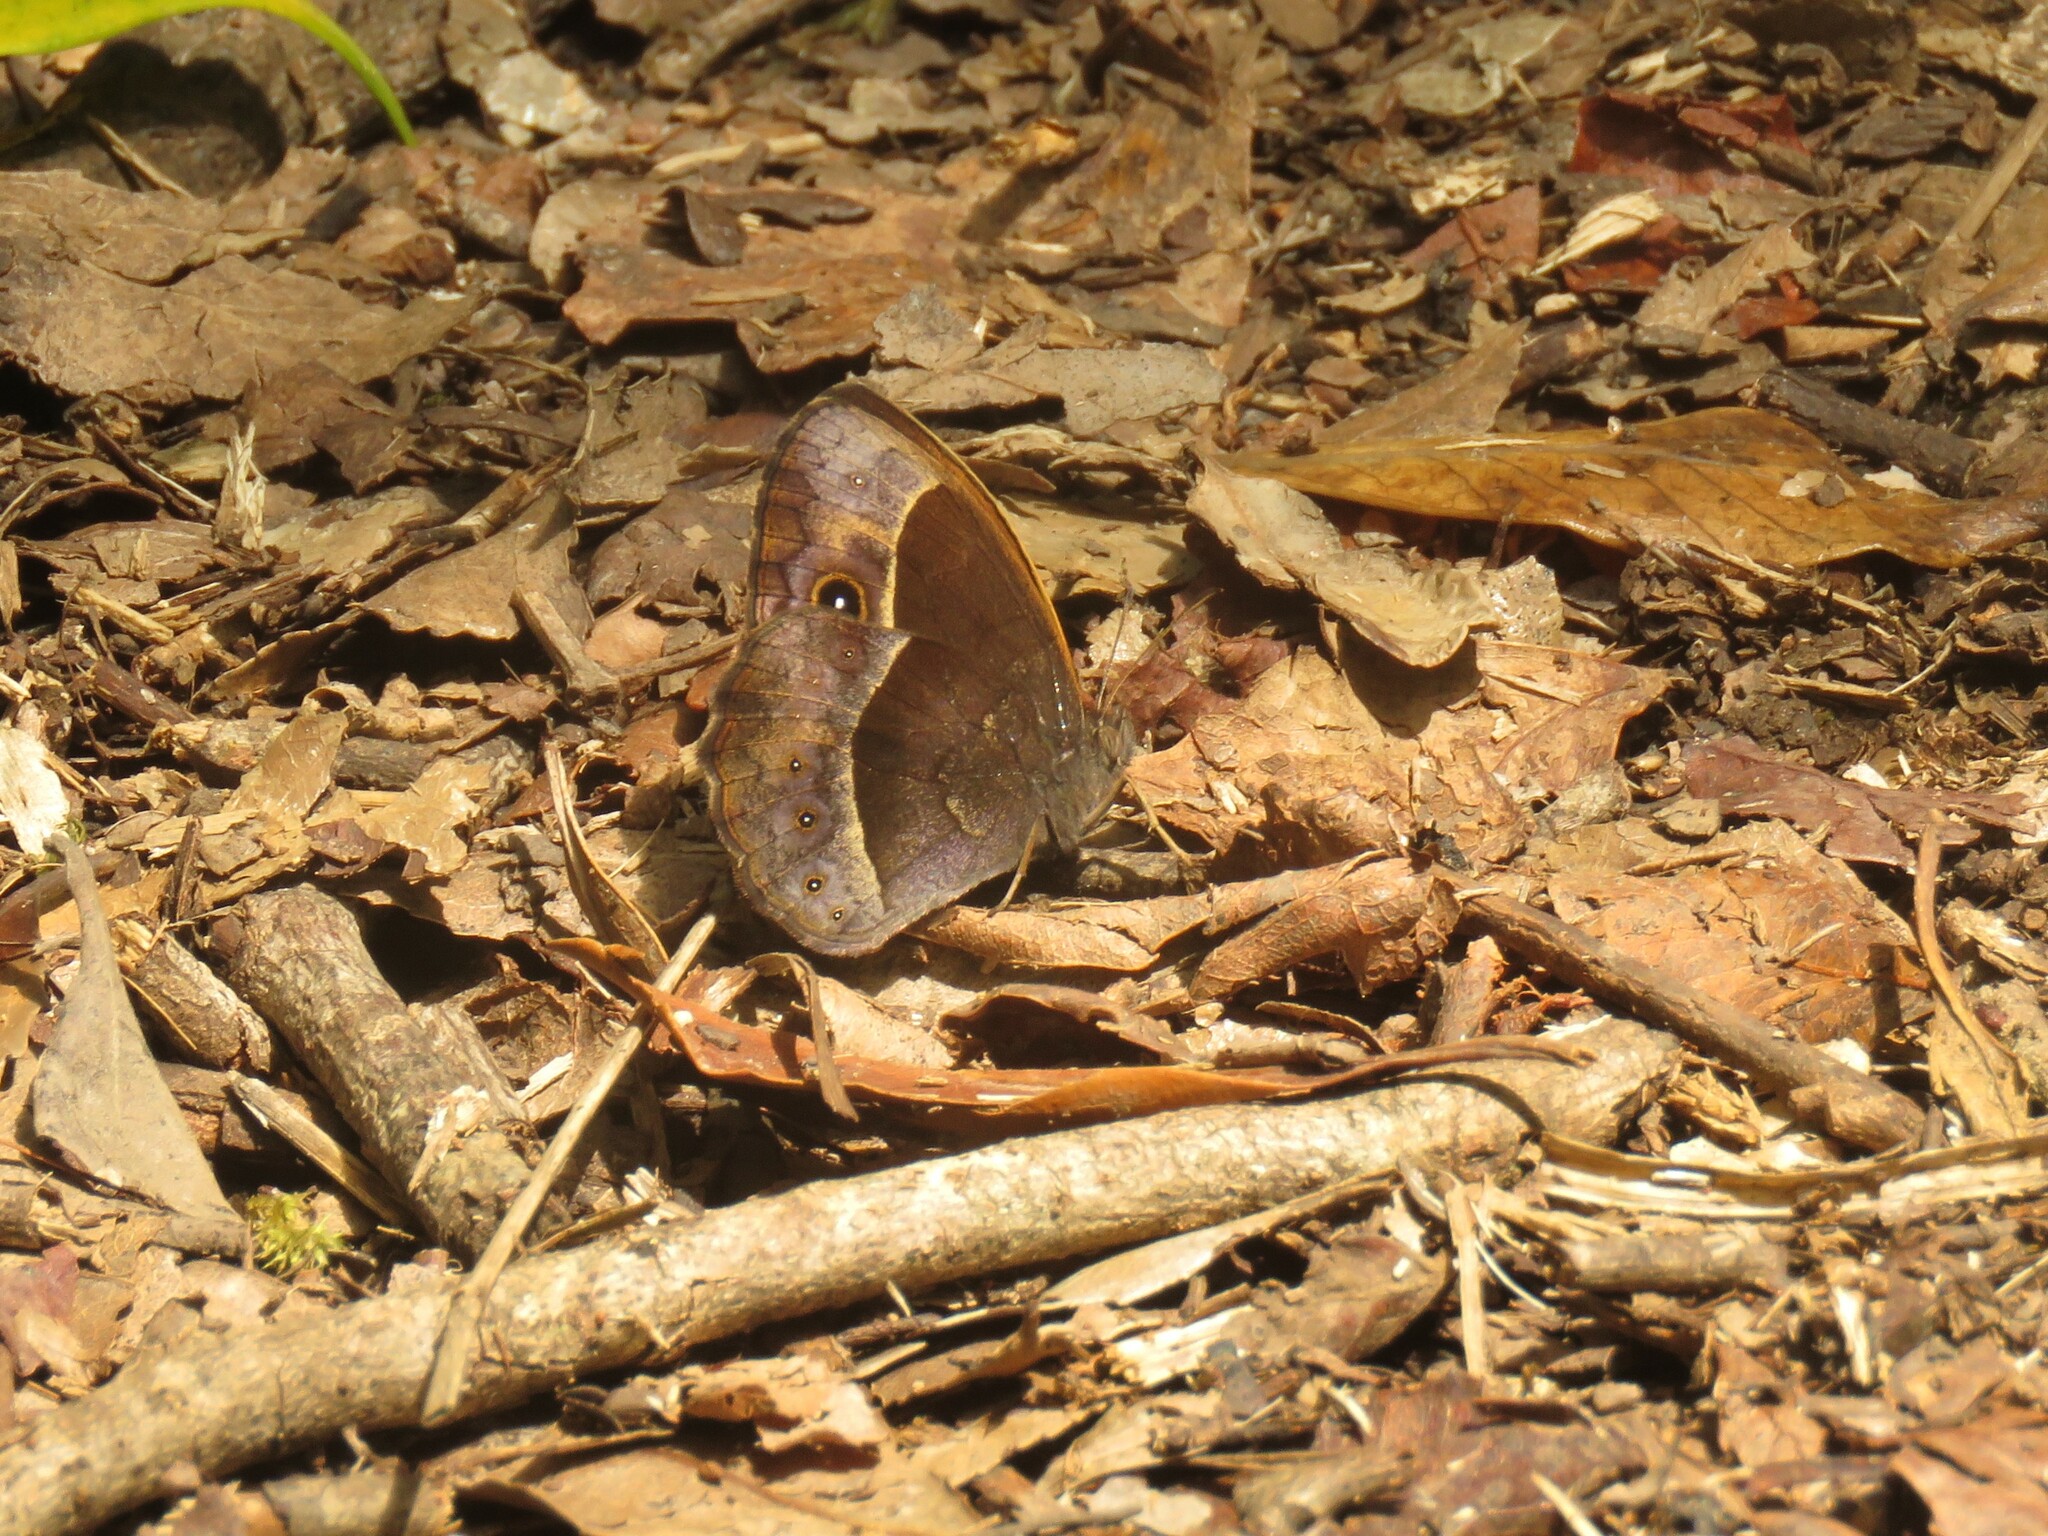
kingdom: Animalia
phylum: Arthropoda
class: Insecta
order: Lepidoptera
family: Nymphalidae
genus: Mycalesis
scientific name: Mycalesis rhacotis
